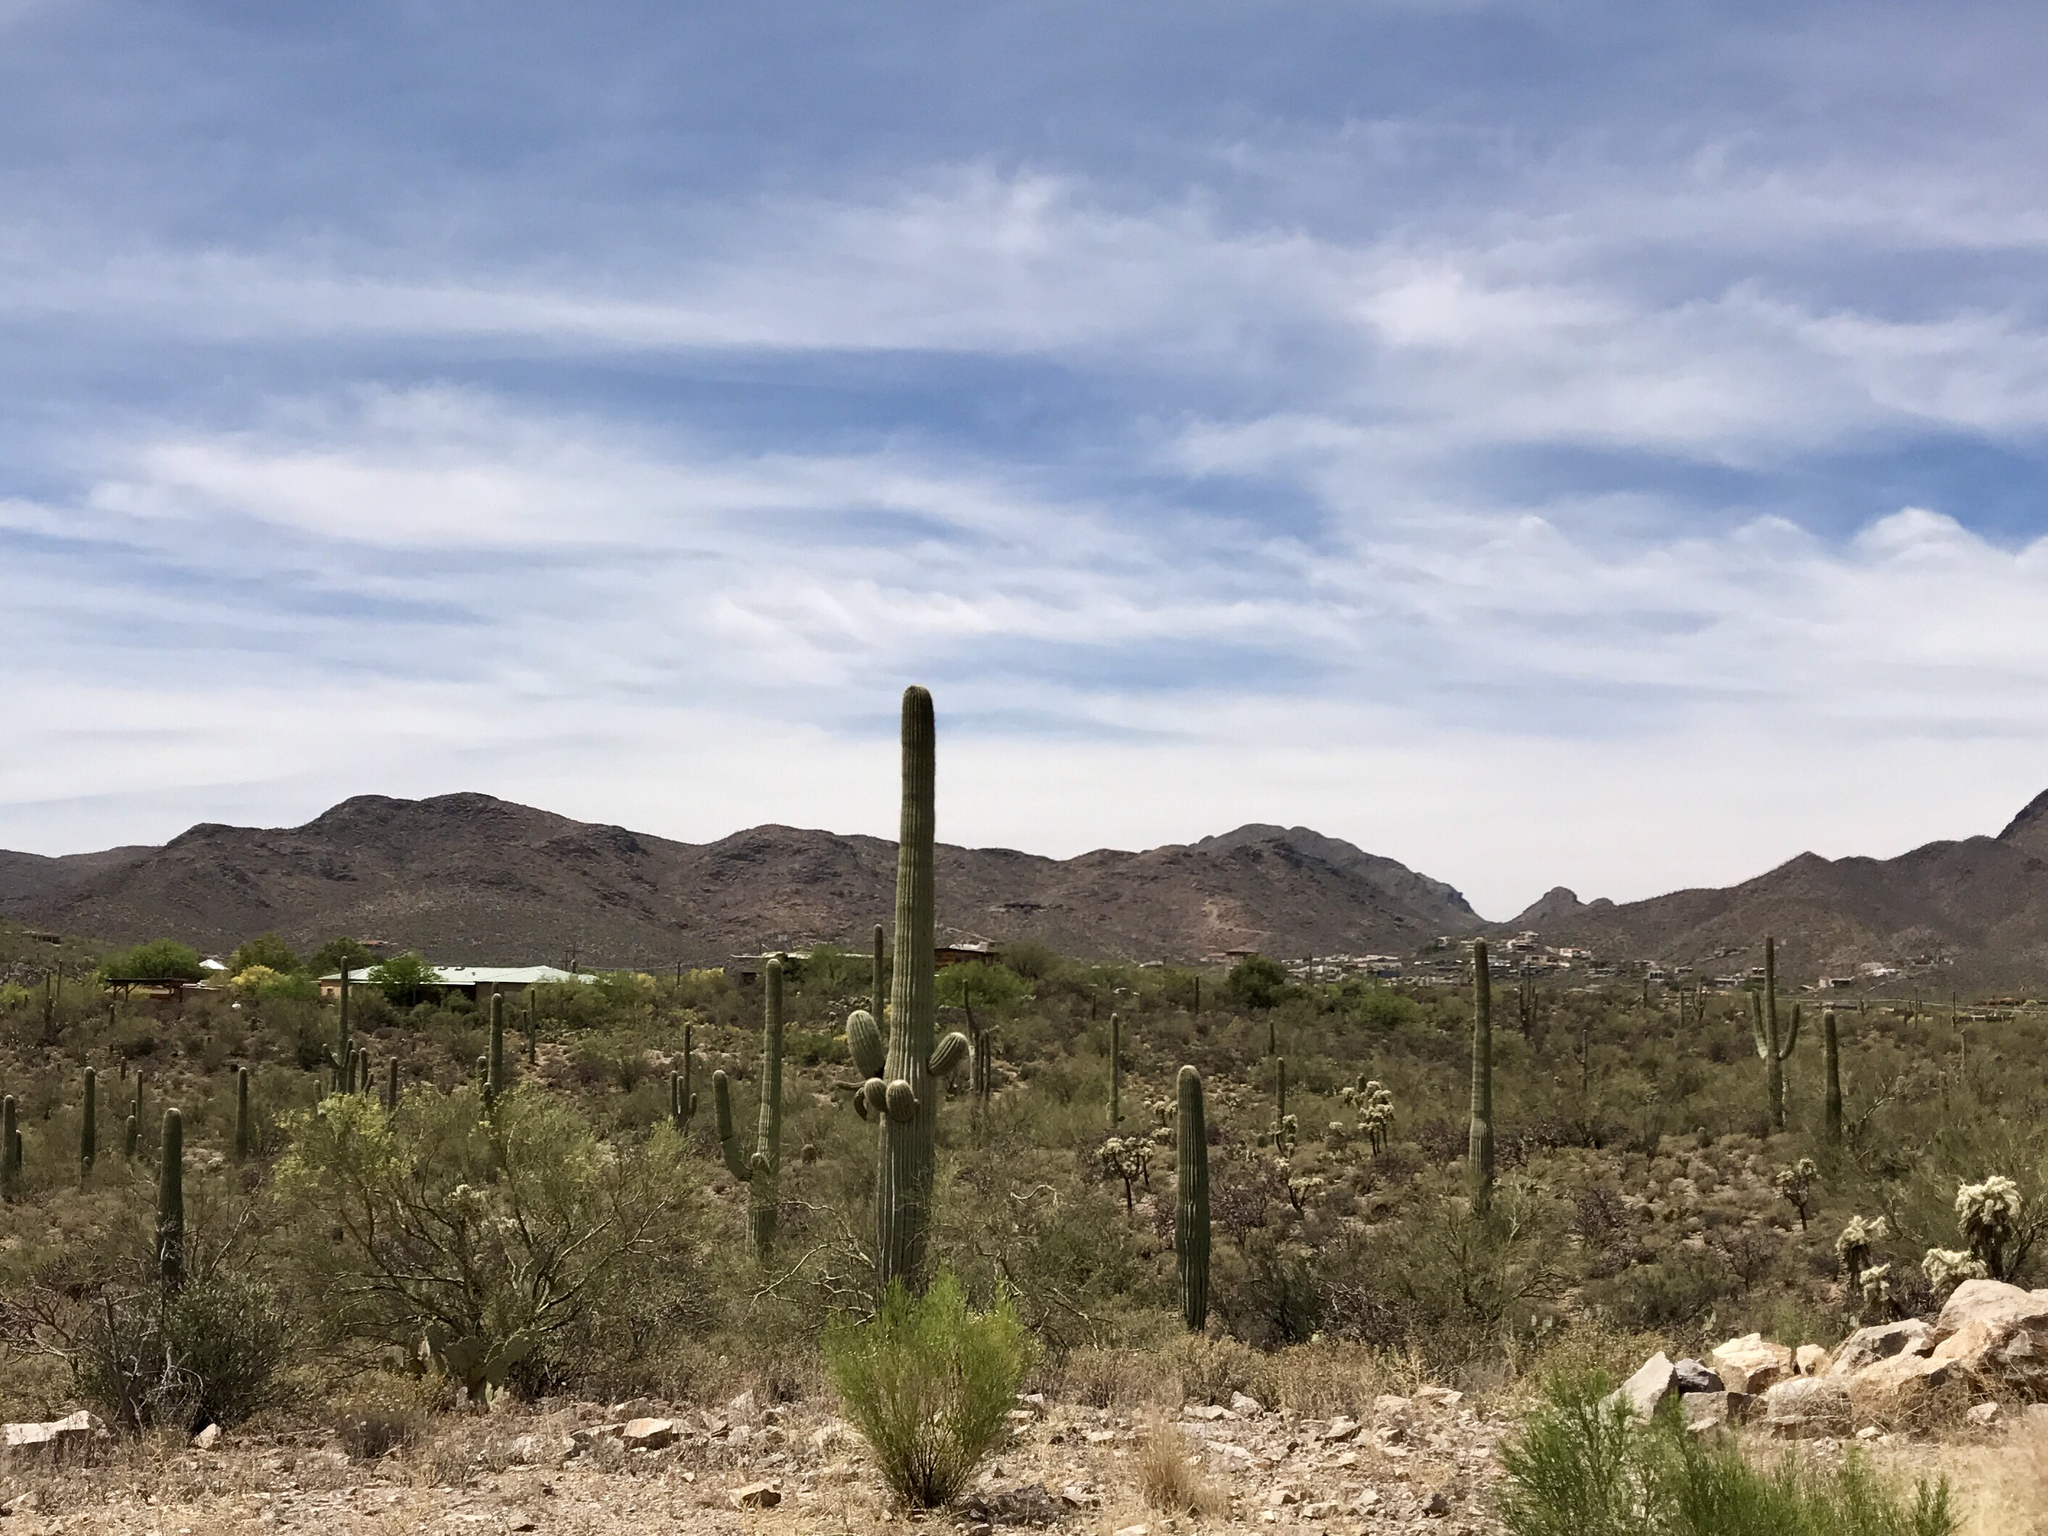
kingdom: Plantae
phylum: Tracheophyta
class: Magnoliopsida
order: Caryophyllales
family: Cactaceae
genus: Carnegiea
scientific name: Carnegiea gigantea
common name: Saguaro
